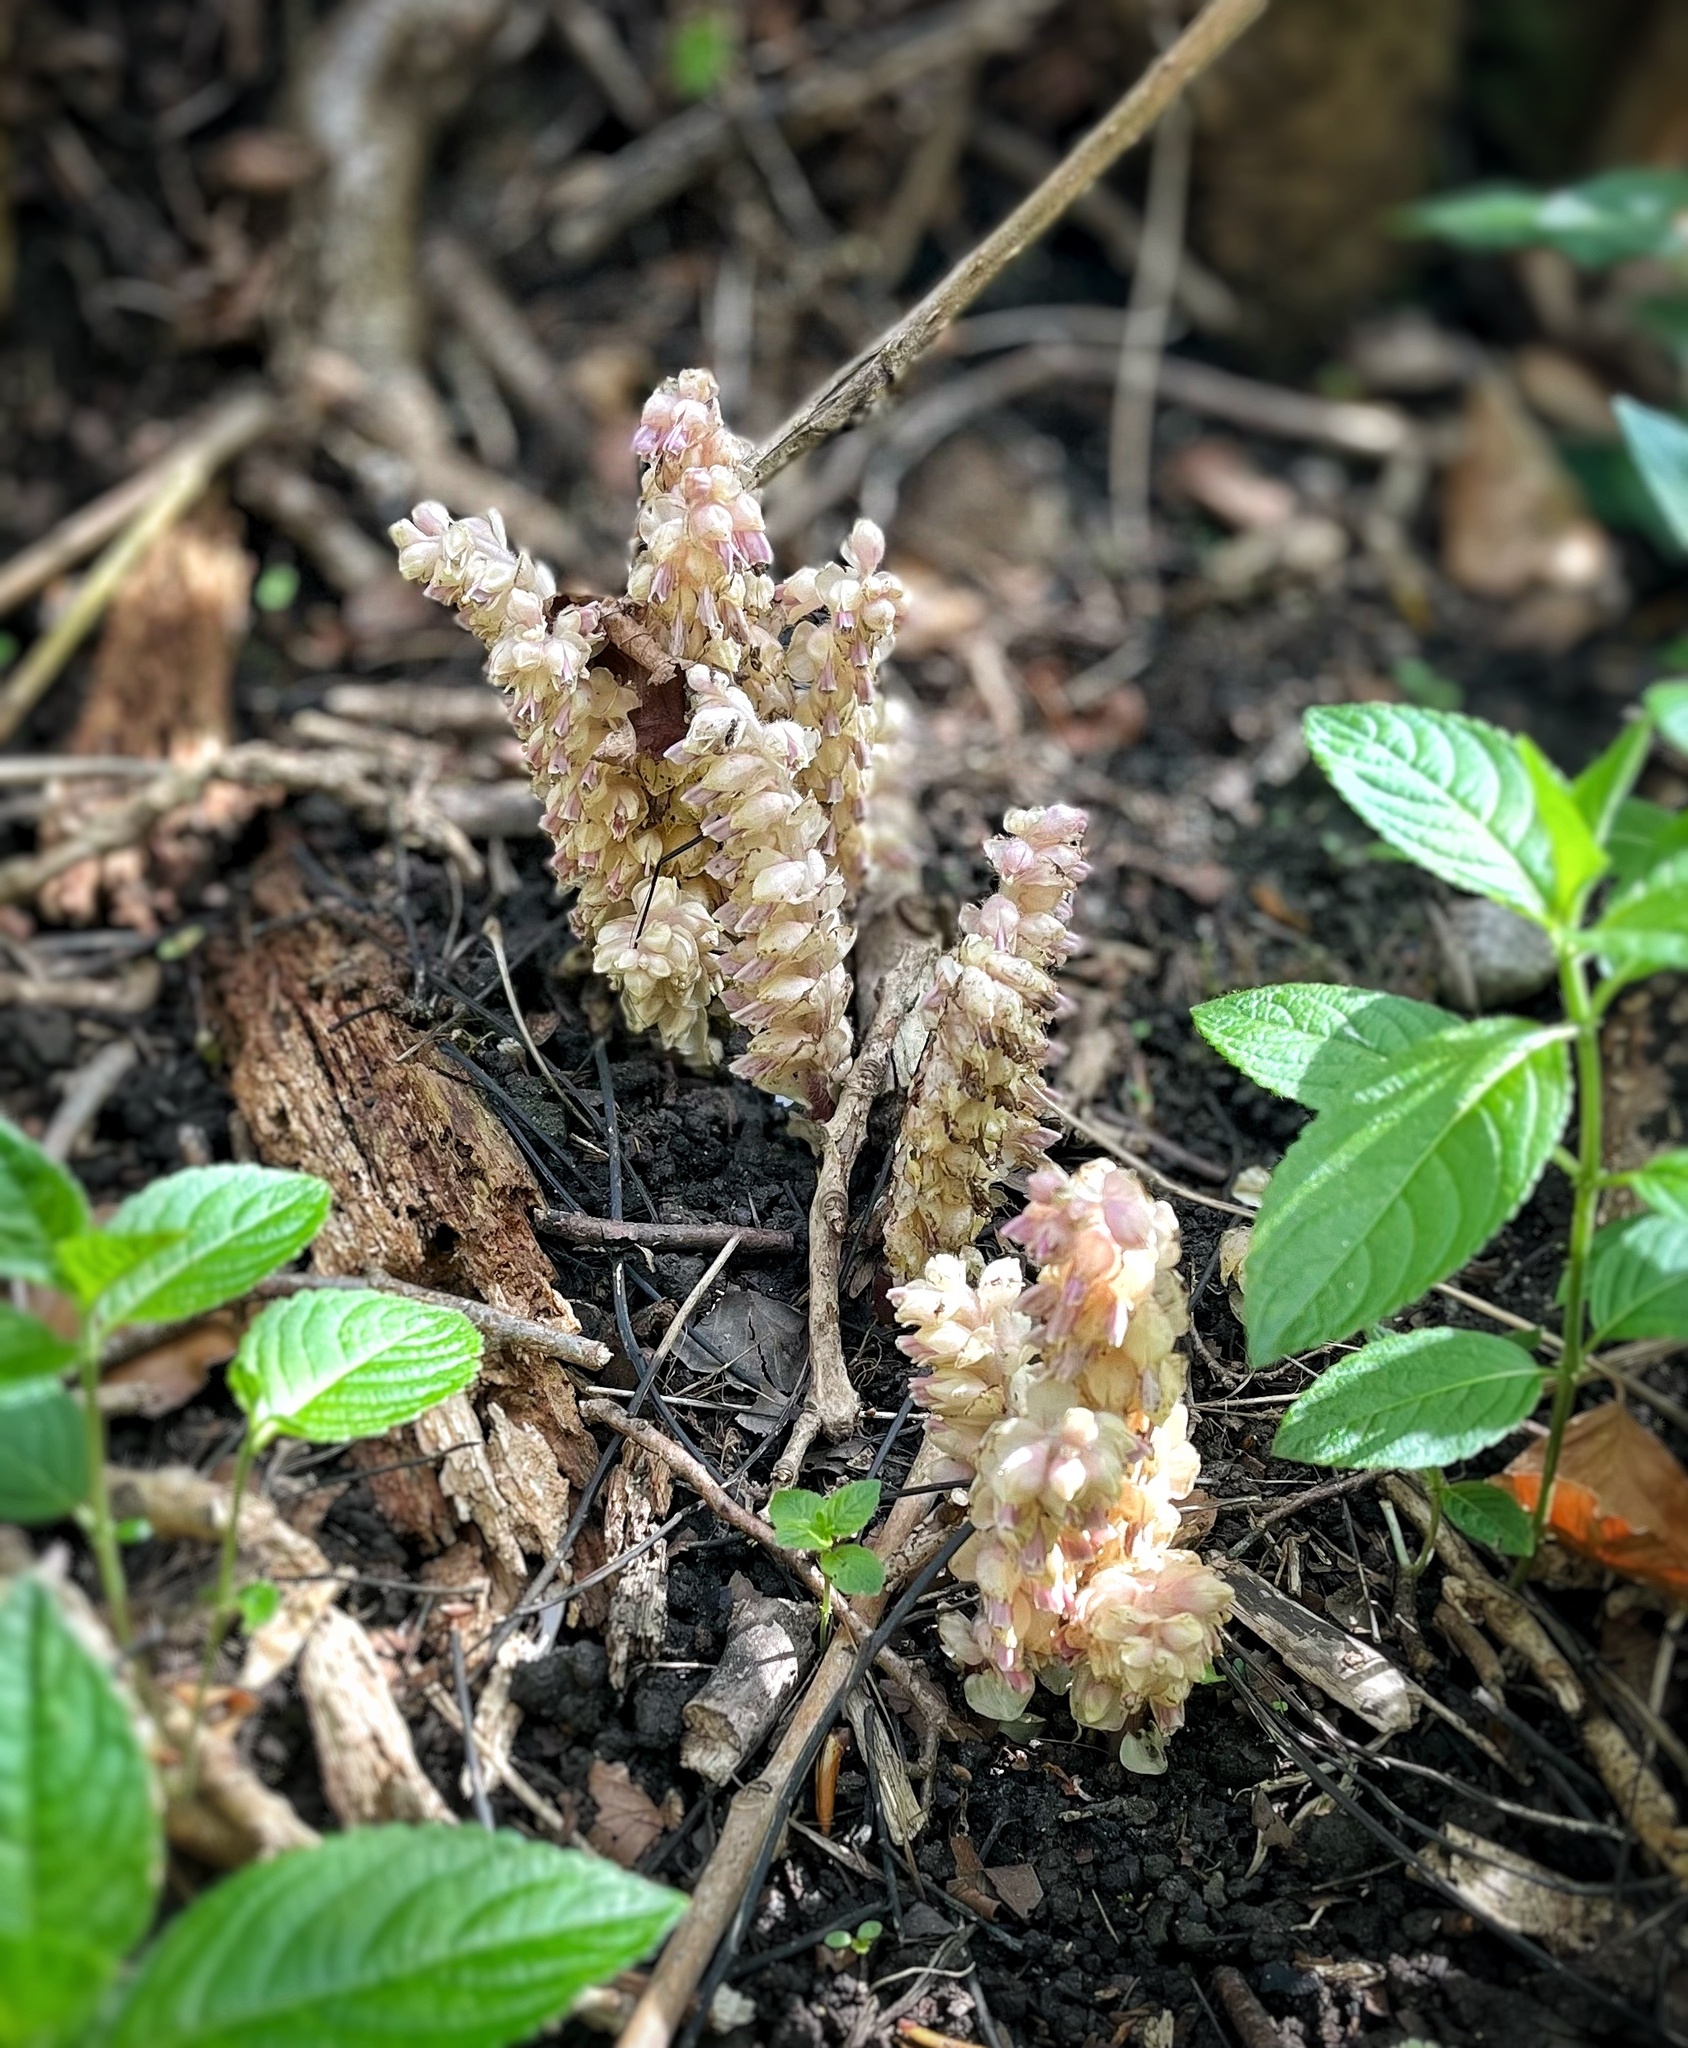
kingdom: Plantae
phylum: Tracheophyta
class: Magnoliopsida
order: Lamiales
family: Orobanchaceae
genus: Lathraea
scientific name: Lathraea squamaria
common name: Toothwort
